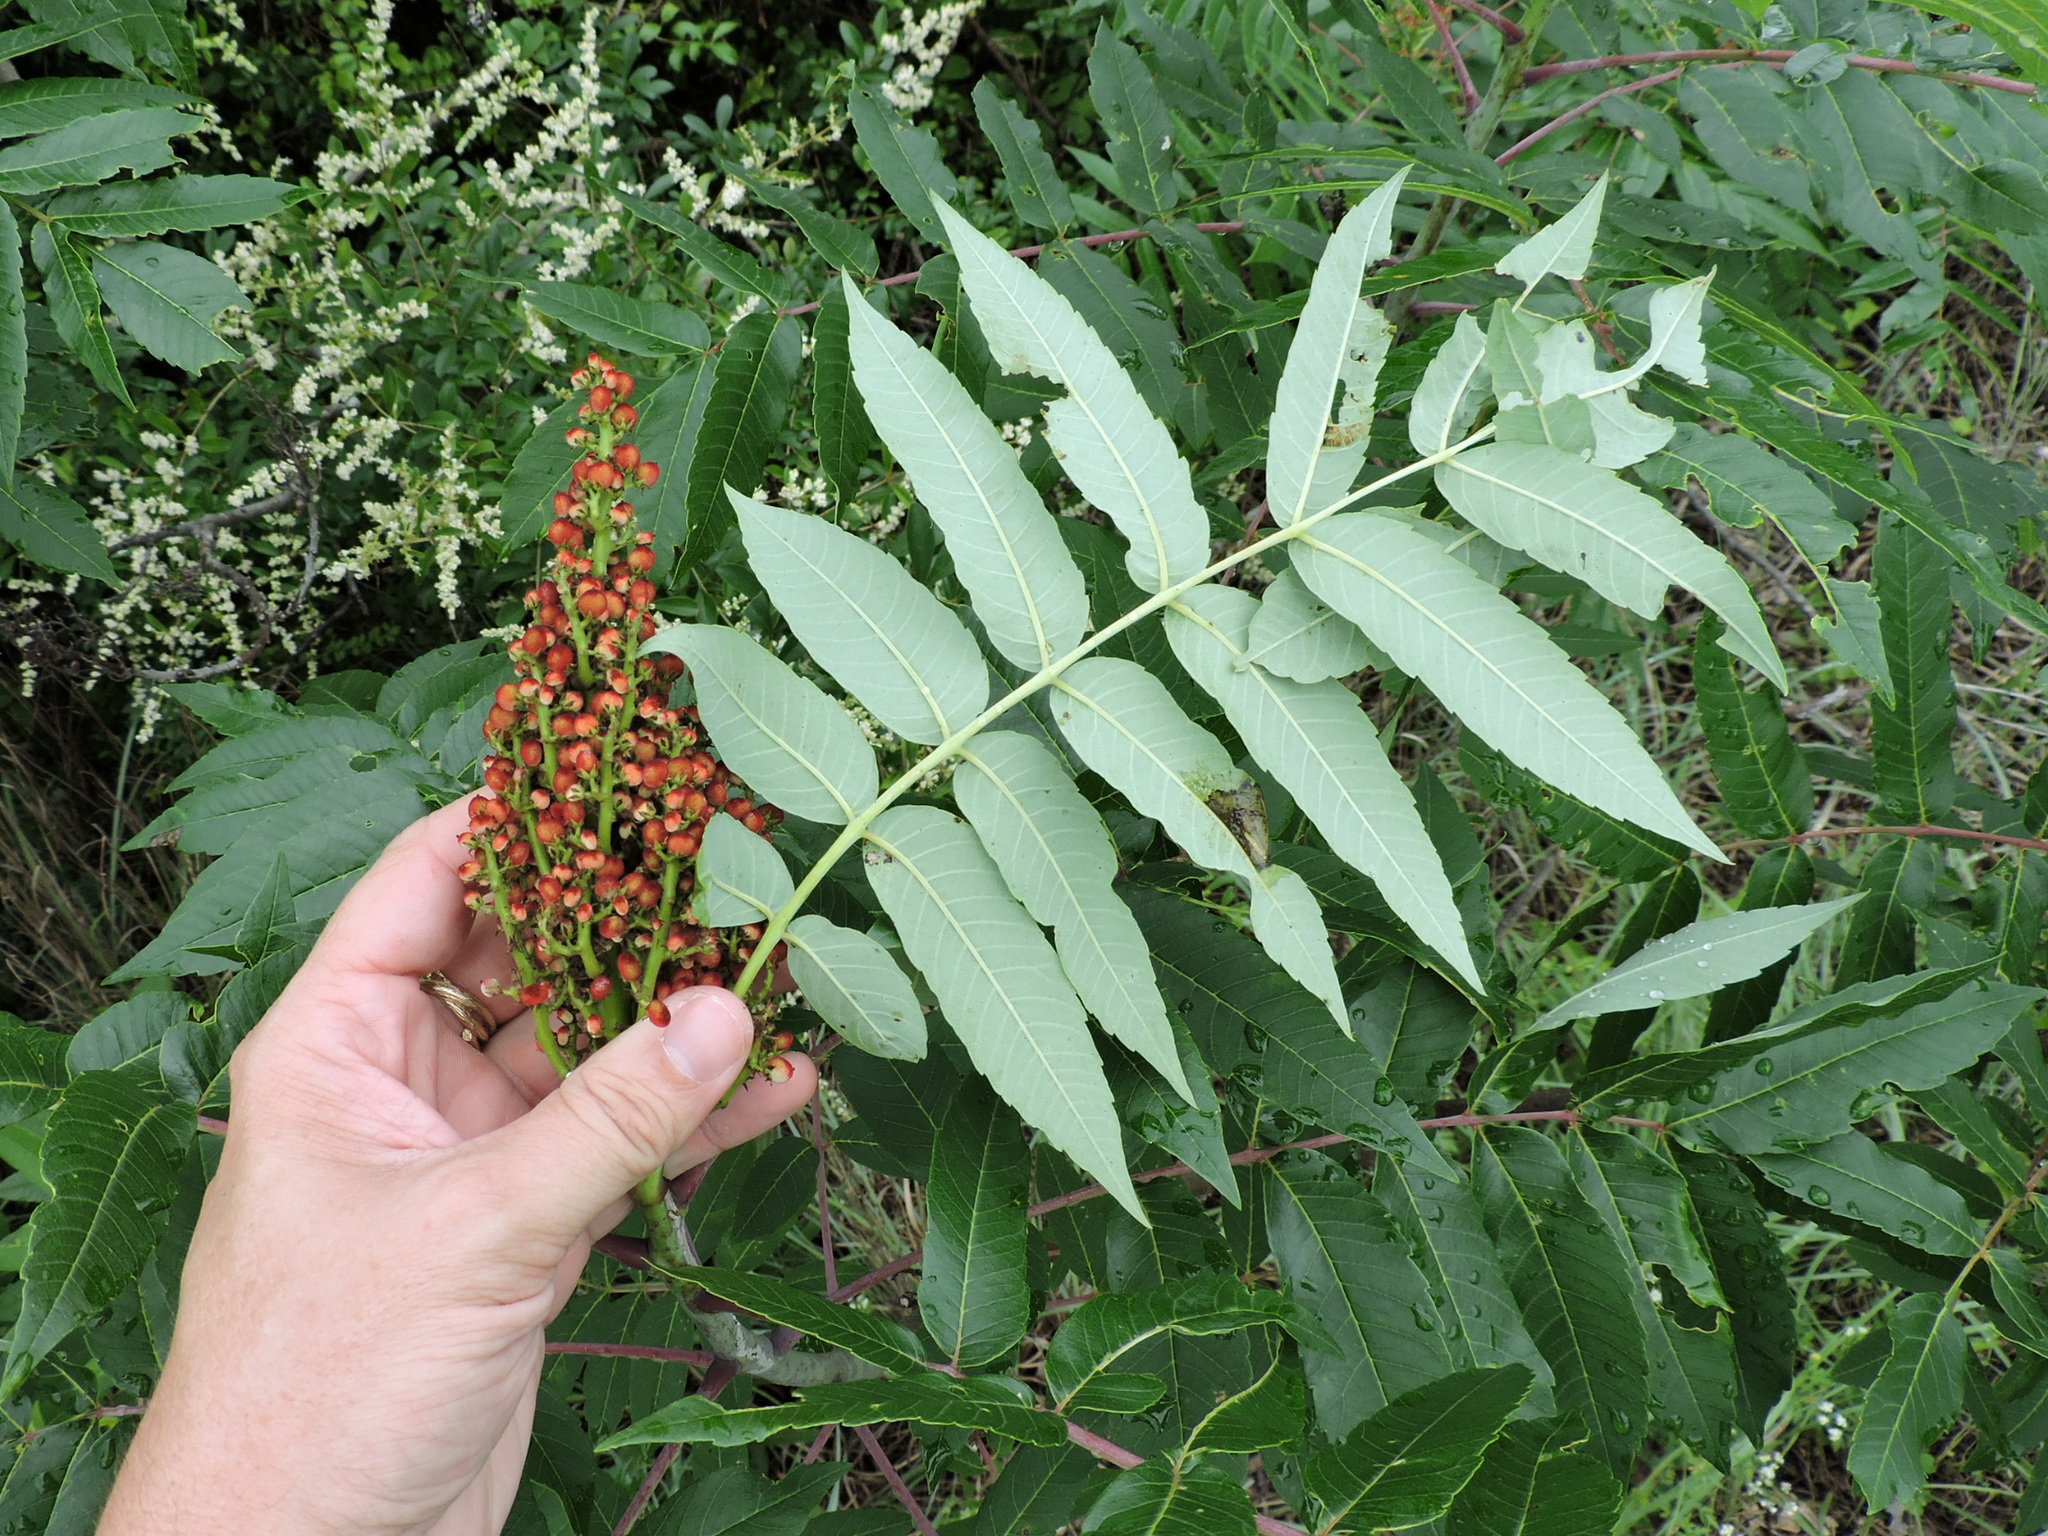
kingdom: Plantae
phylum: Tracheophyta
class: Magnoliopsida
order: Sapindales
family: Anacardiaceae
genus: Rhus
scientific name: Rhus glabra
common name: Scarlet sumac
